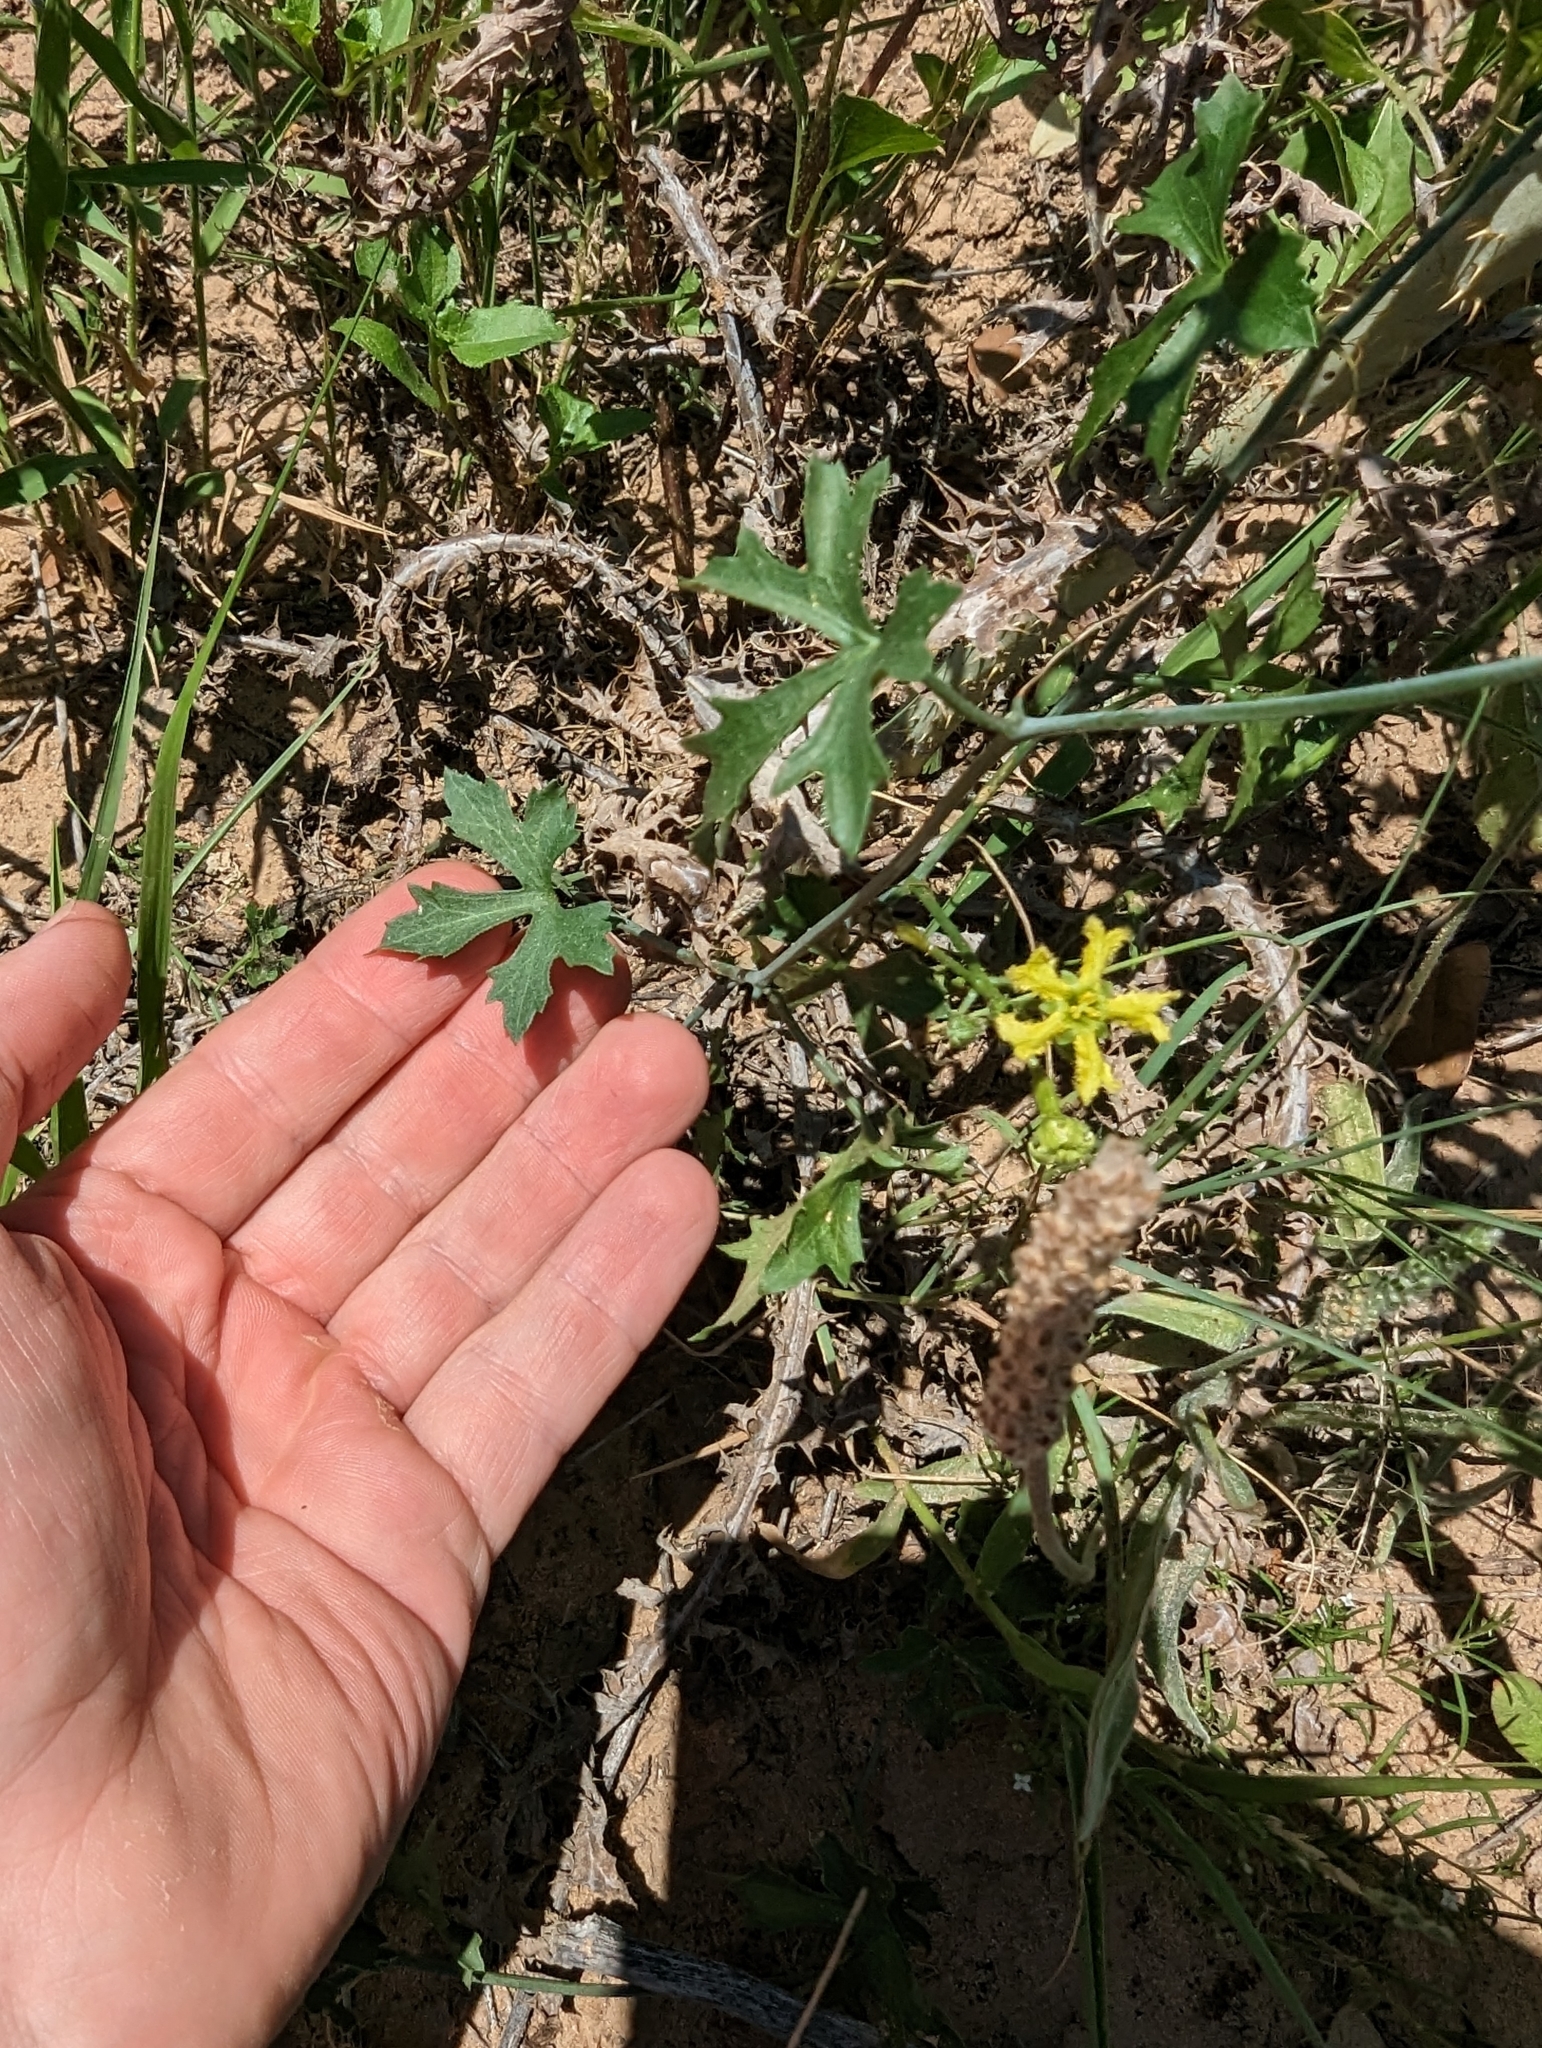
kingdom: Plantae
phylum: Tracheophyta
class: Magnoliopsida
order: Cucurbitales
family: Cucurbitaceae
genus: Ibervillea
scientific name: Ibervillea lindheimeri
